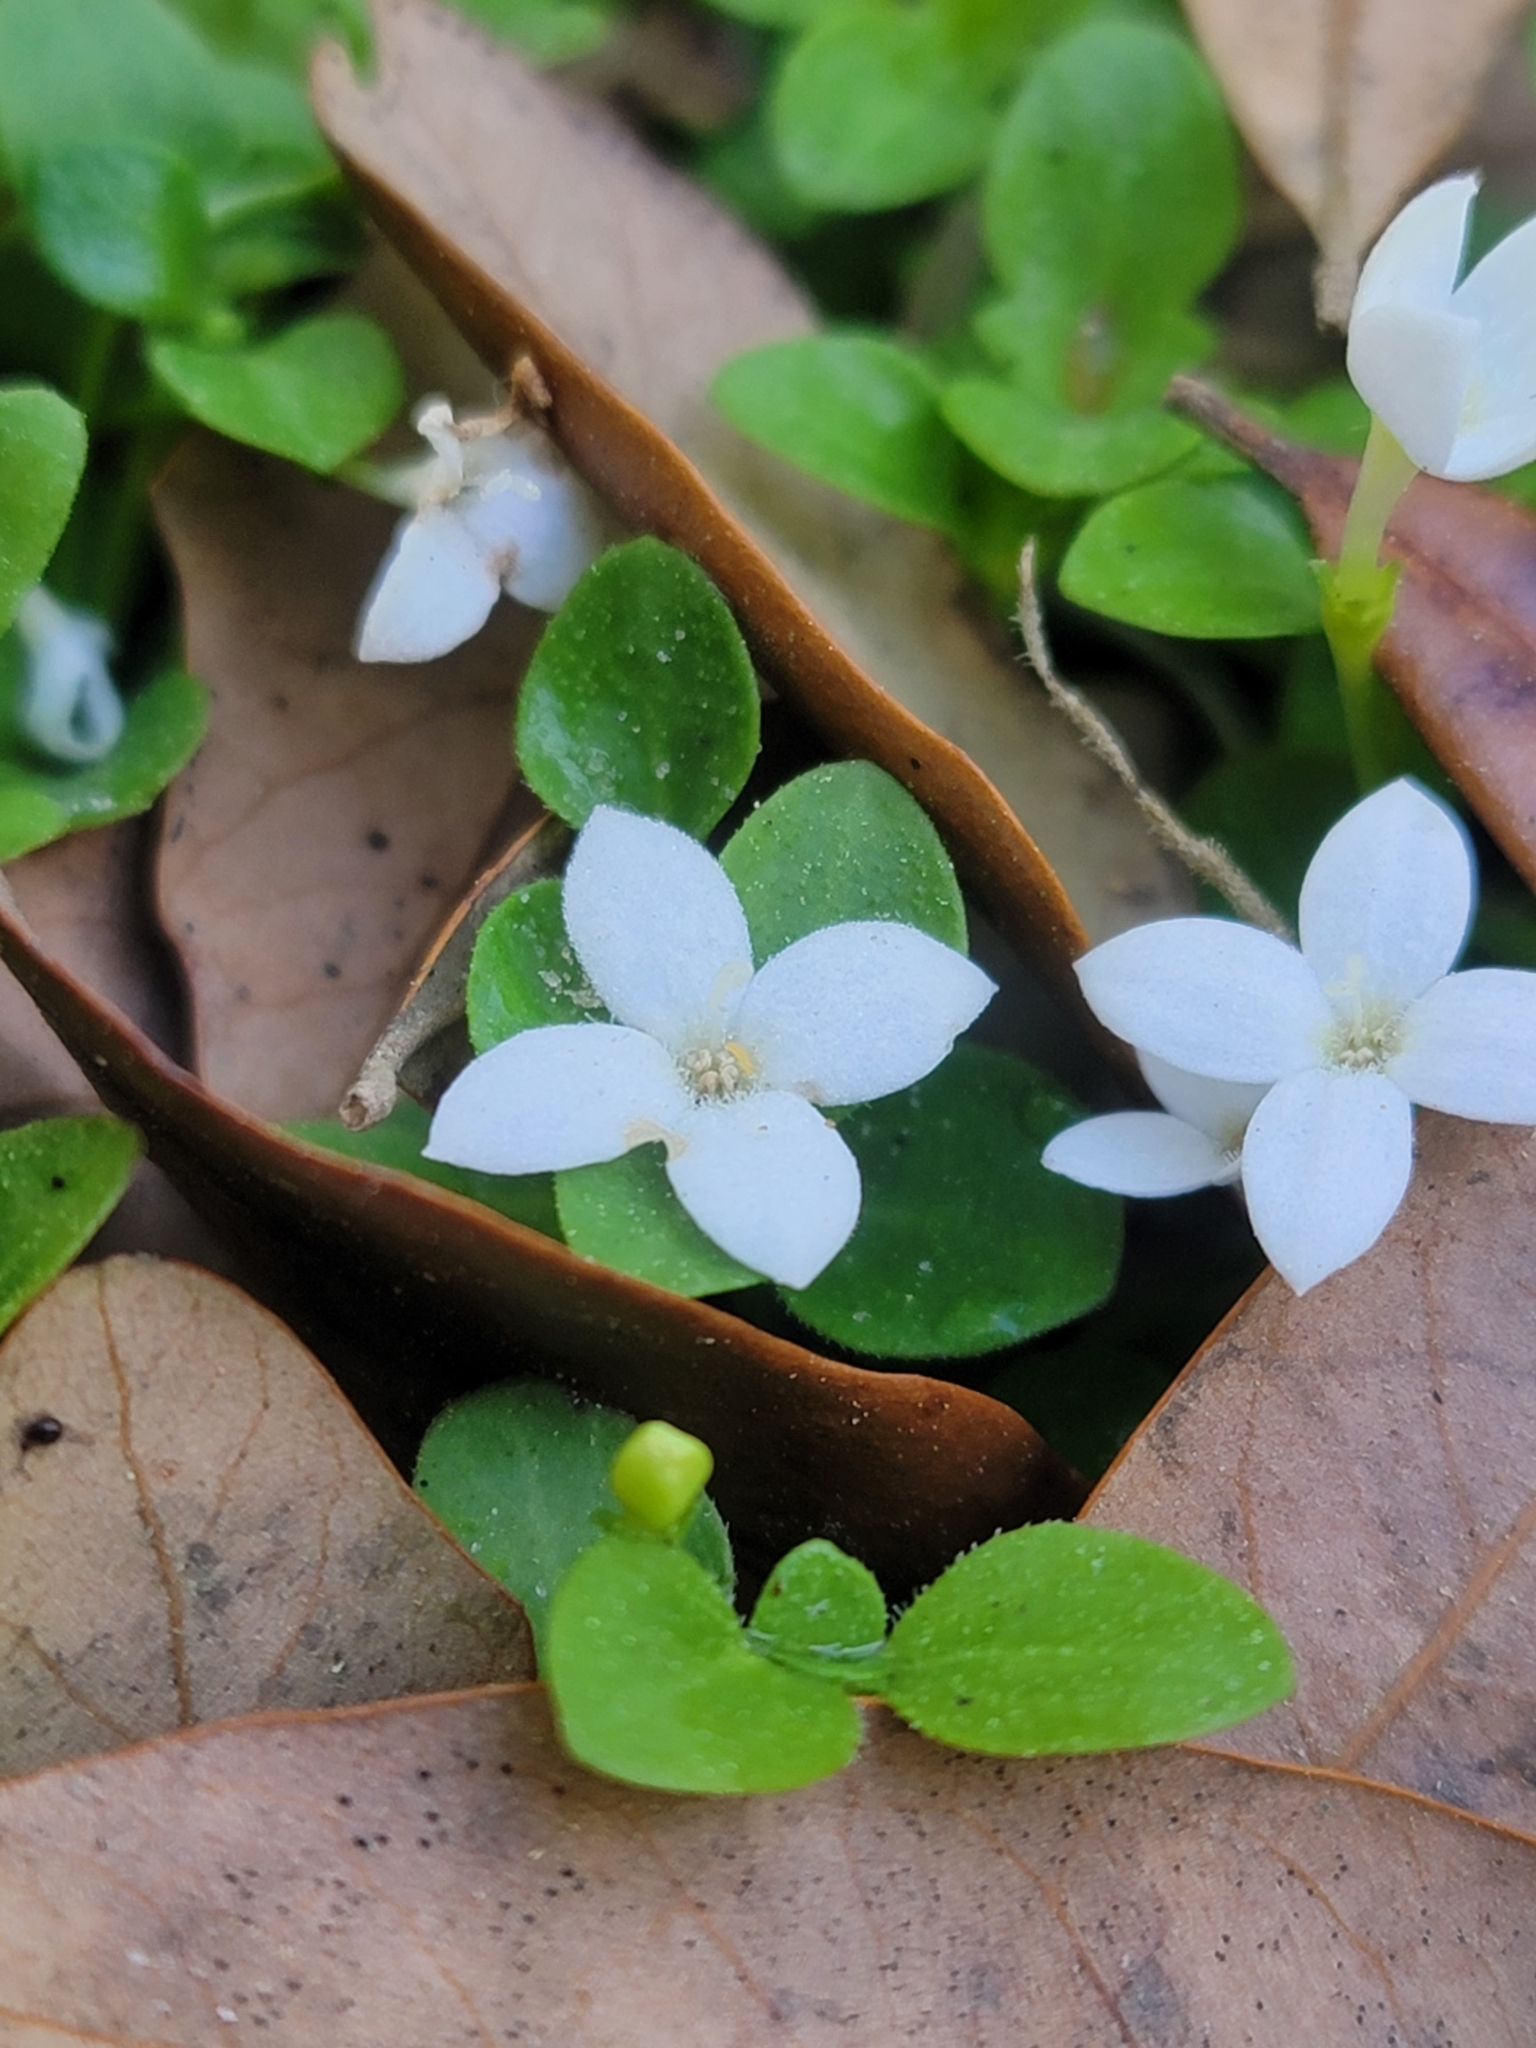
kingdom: Plantae
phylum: Tracheophyta
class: Magnoliopsida
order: Gentianales
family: Rubiaceae
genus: Houstonia
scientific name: Houstonia procumbens
